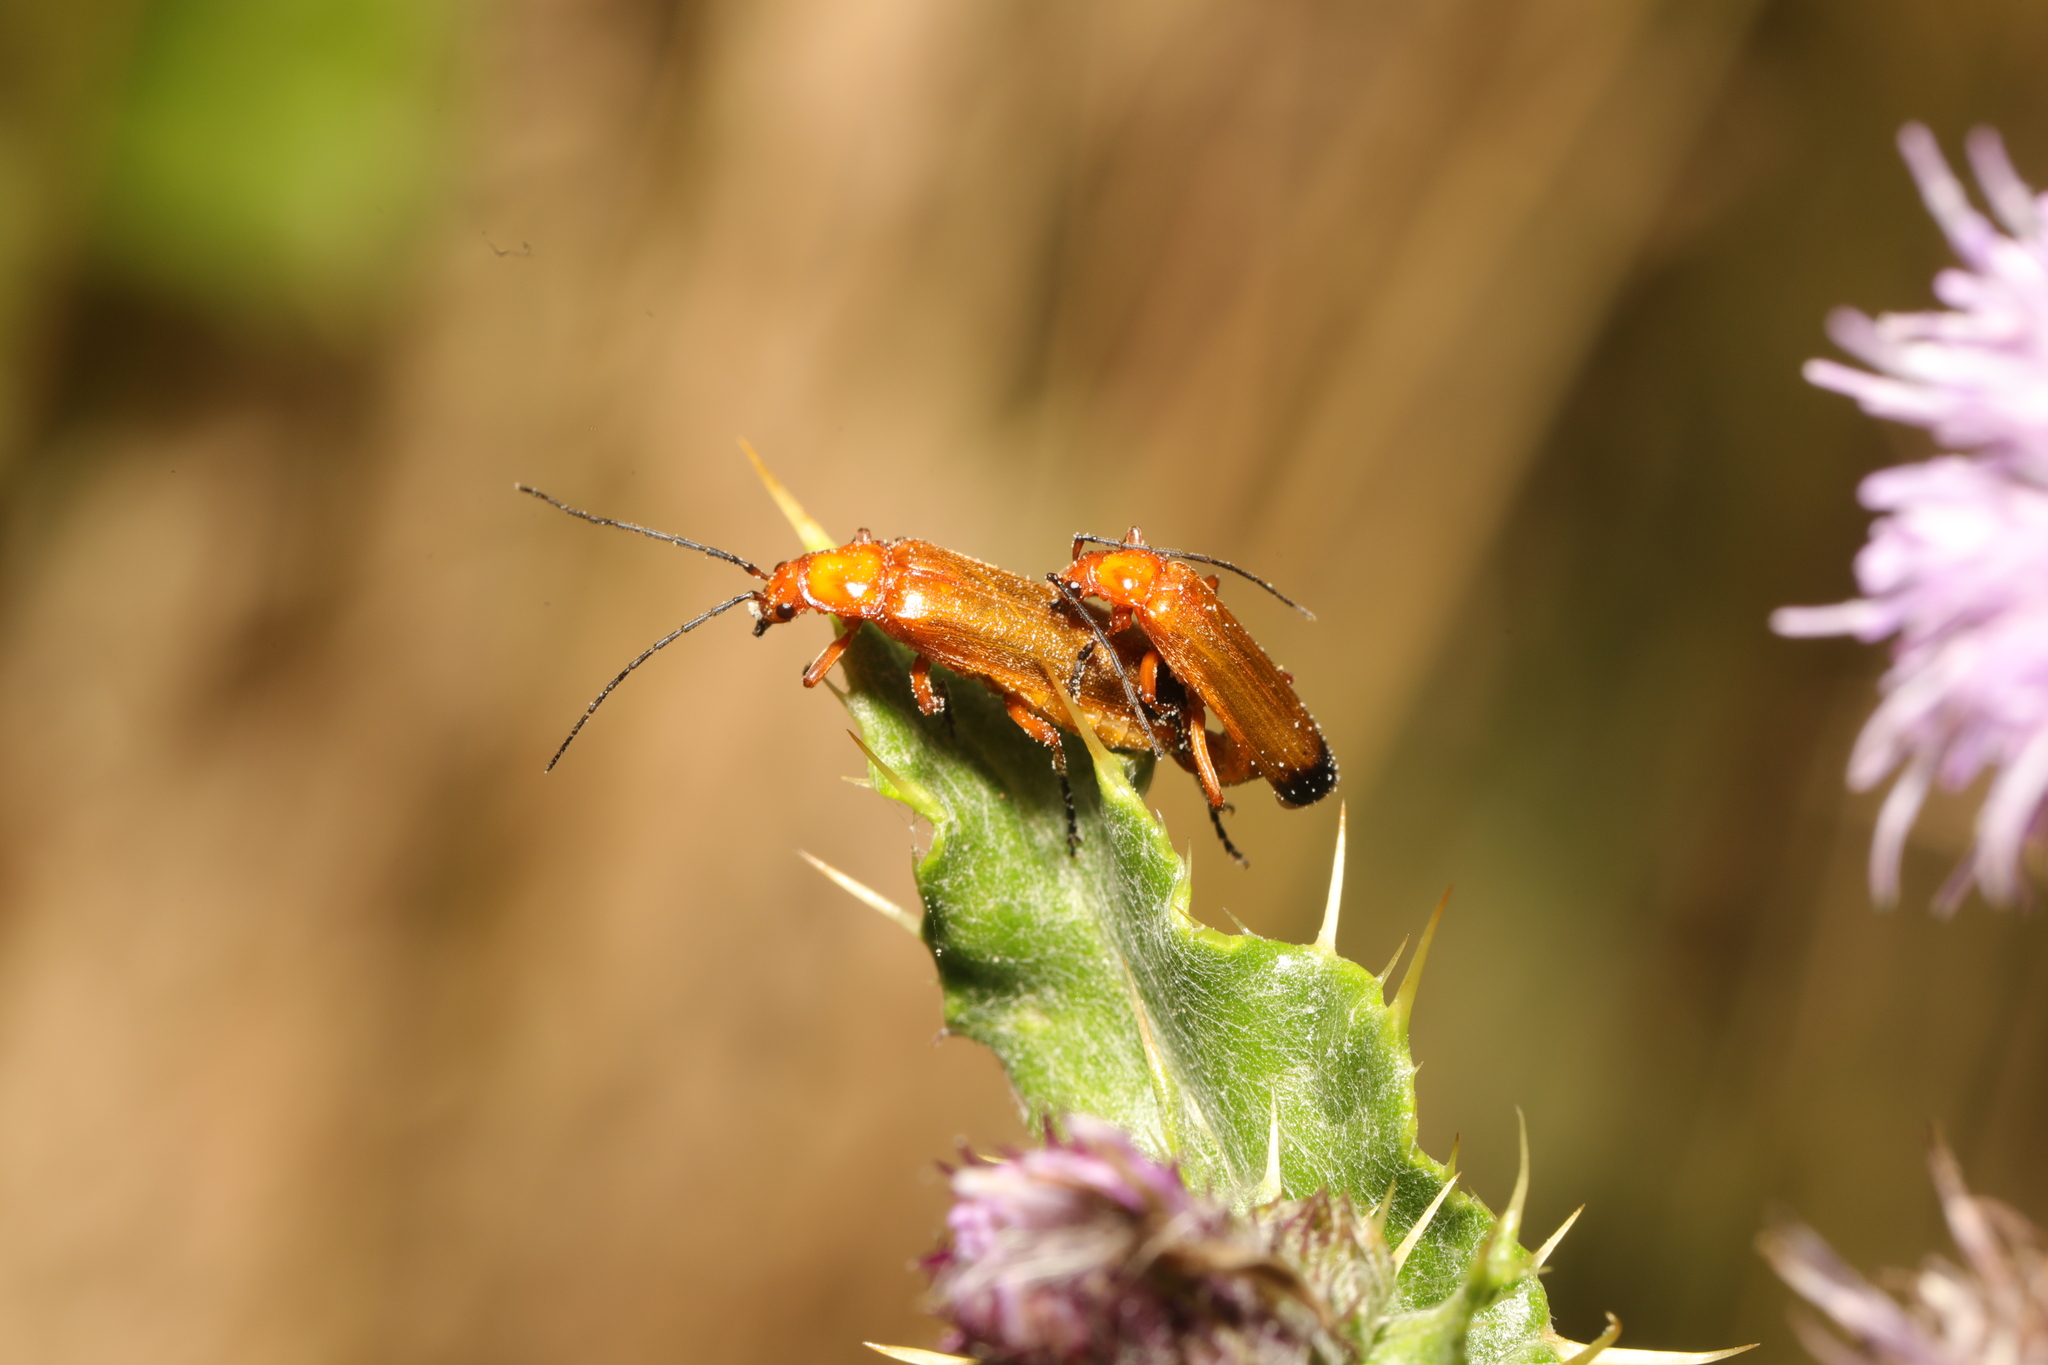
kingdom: Animalia
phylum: Arthropoda
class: Insecta
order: Coleoptera
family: Cantharidae
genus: Rhagonycha
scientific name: Rhagonycha fulva
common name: Common red soldier beetle
